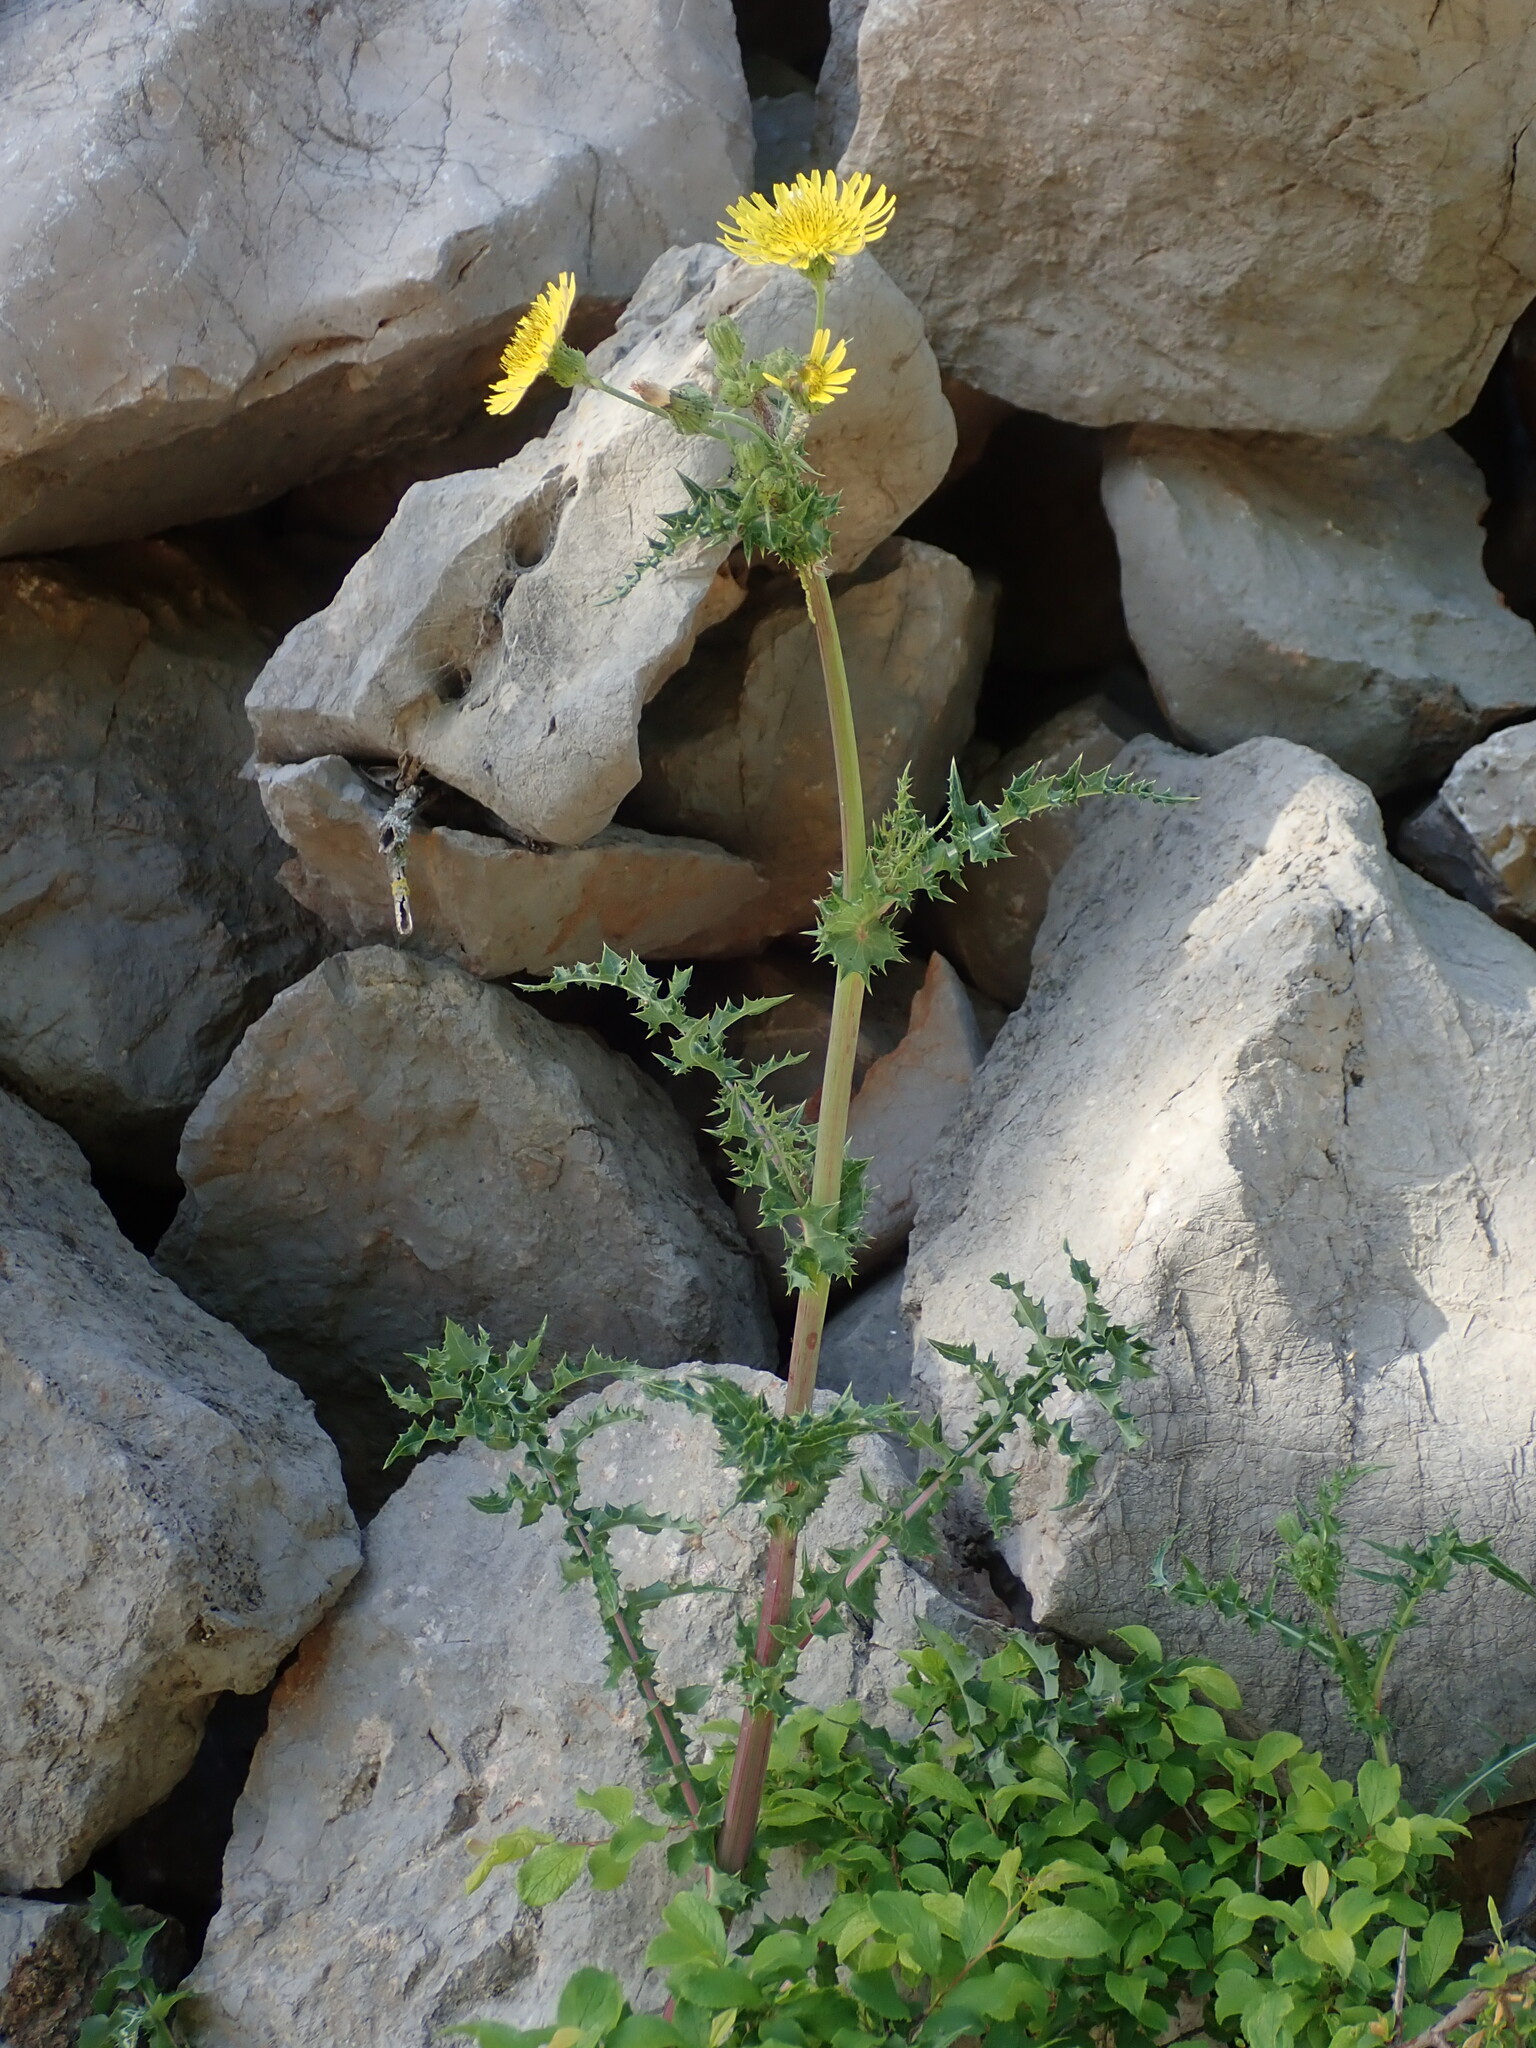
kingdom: Plantae
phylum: Tracheophyta
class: Magnoliopsida
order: Asterales
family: Asteraceae
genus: Sonchus
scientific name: Sonchus asper
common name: Prickly sow-thistle
